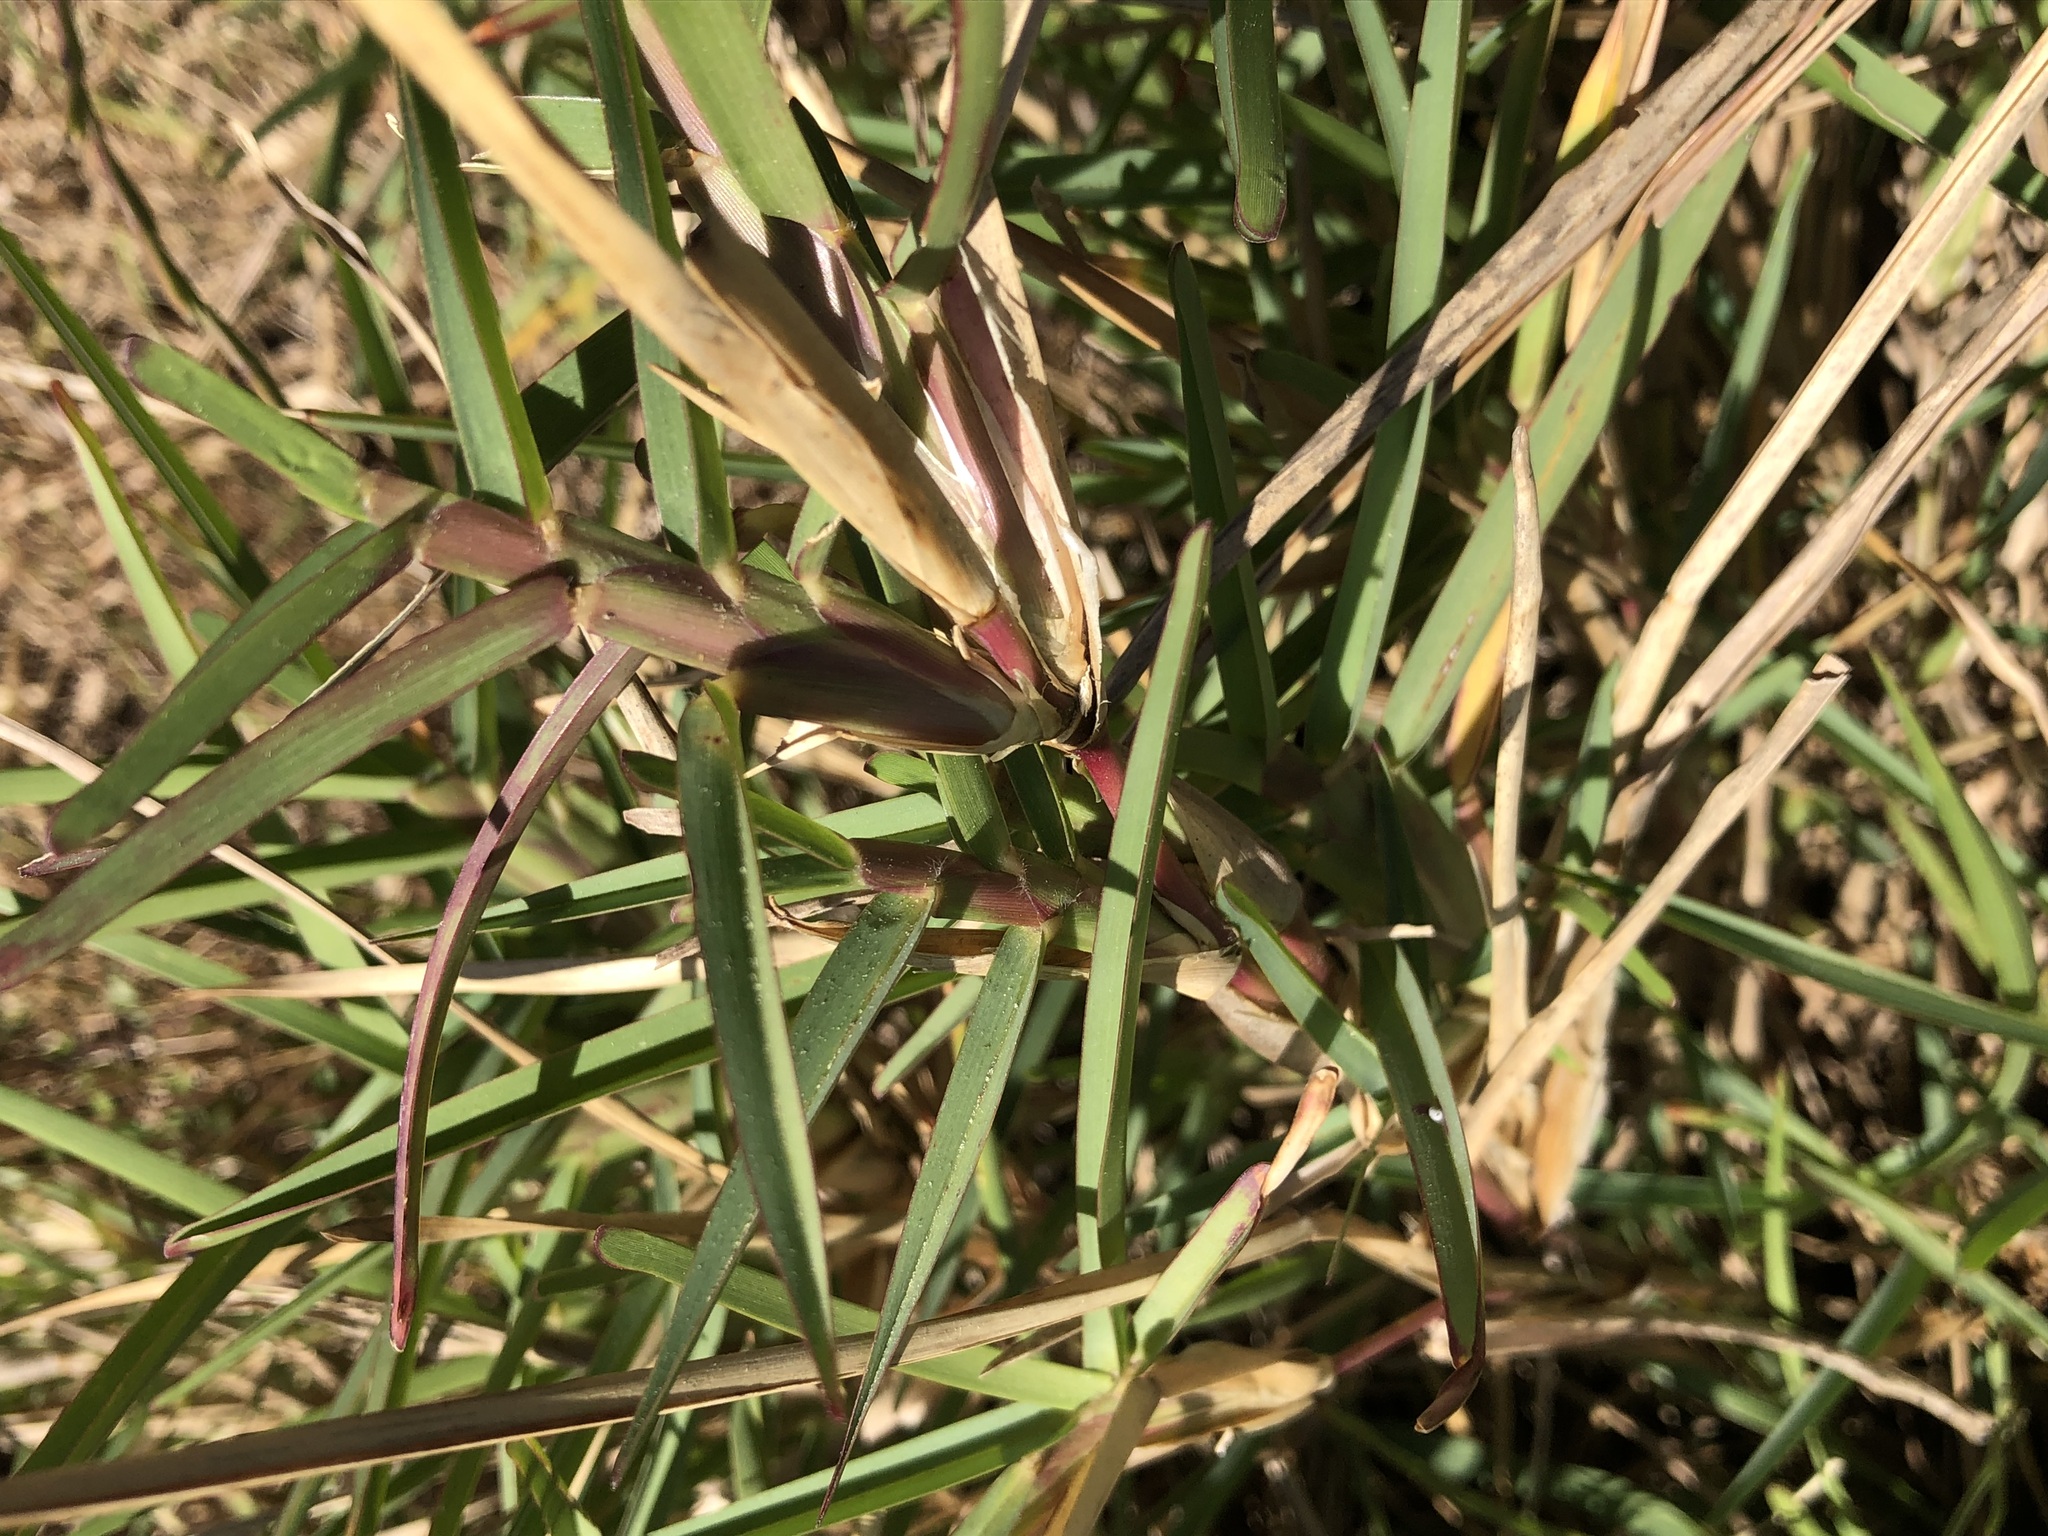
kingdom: Plantae
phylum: Tracheophyta
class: Liliopsida
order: Poales
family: Poaceae
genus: Stenotaphrum
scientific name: Stenotaphrum secundatum
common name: St. augustine grass
